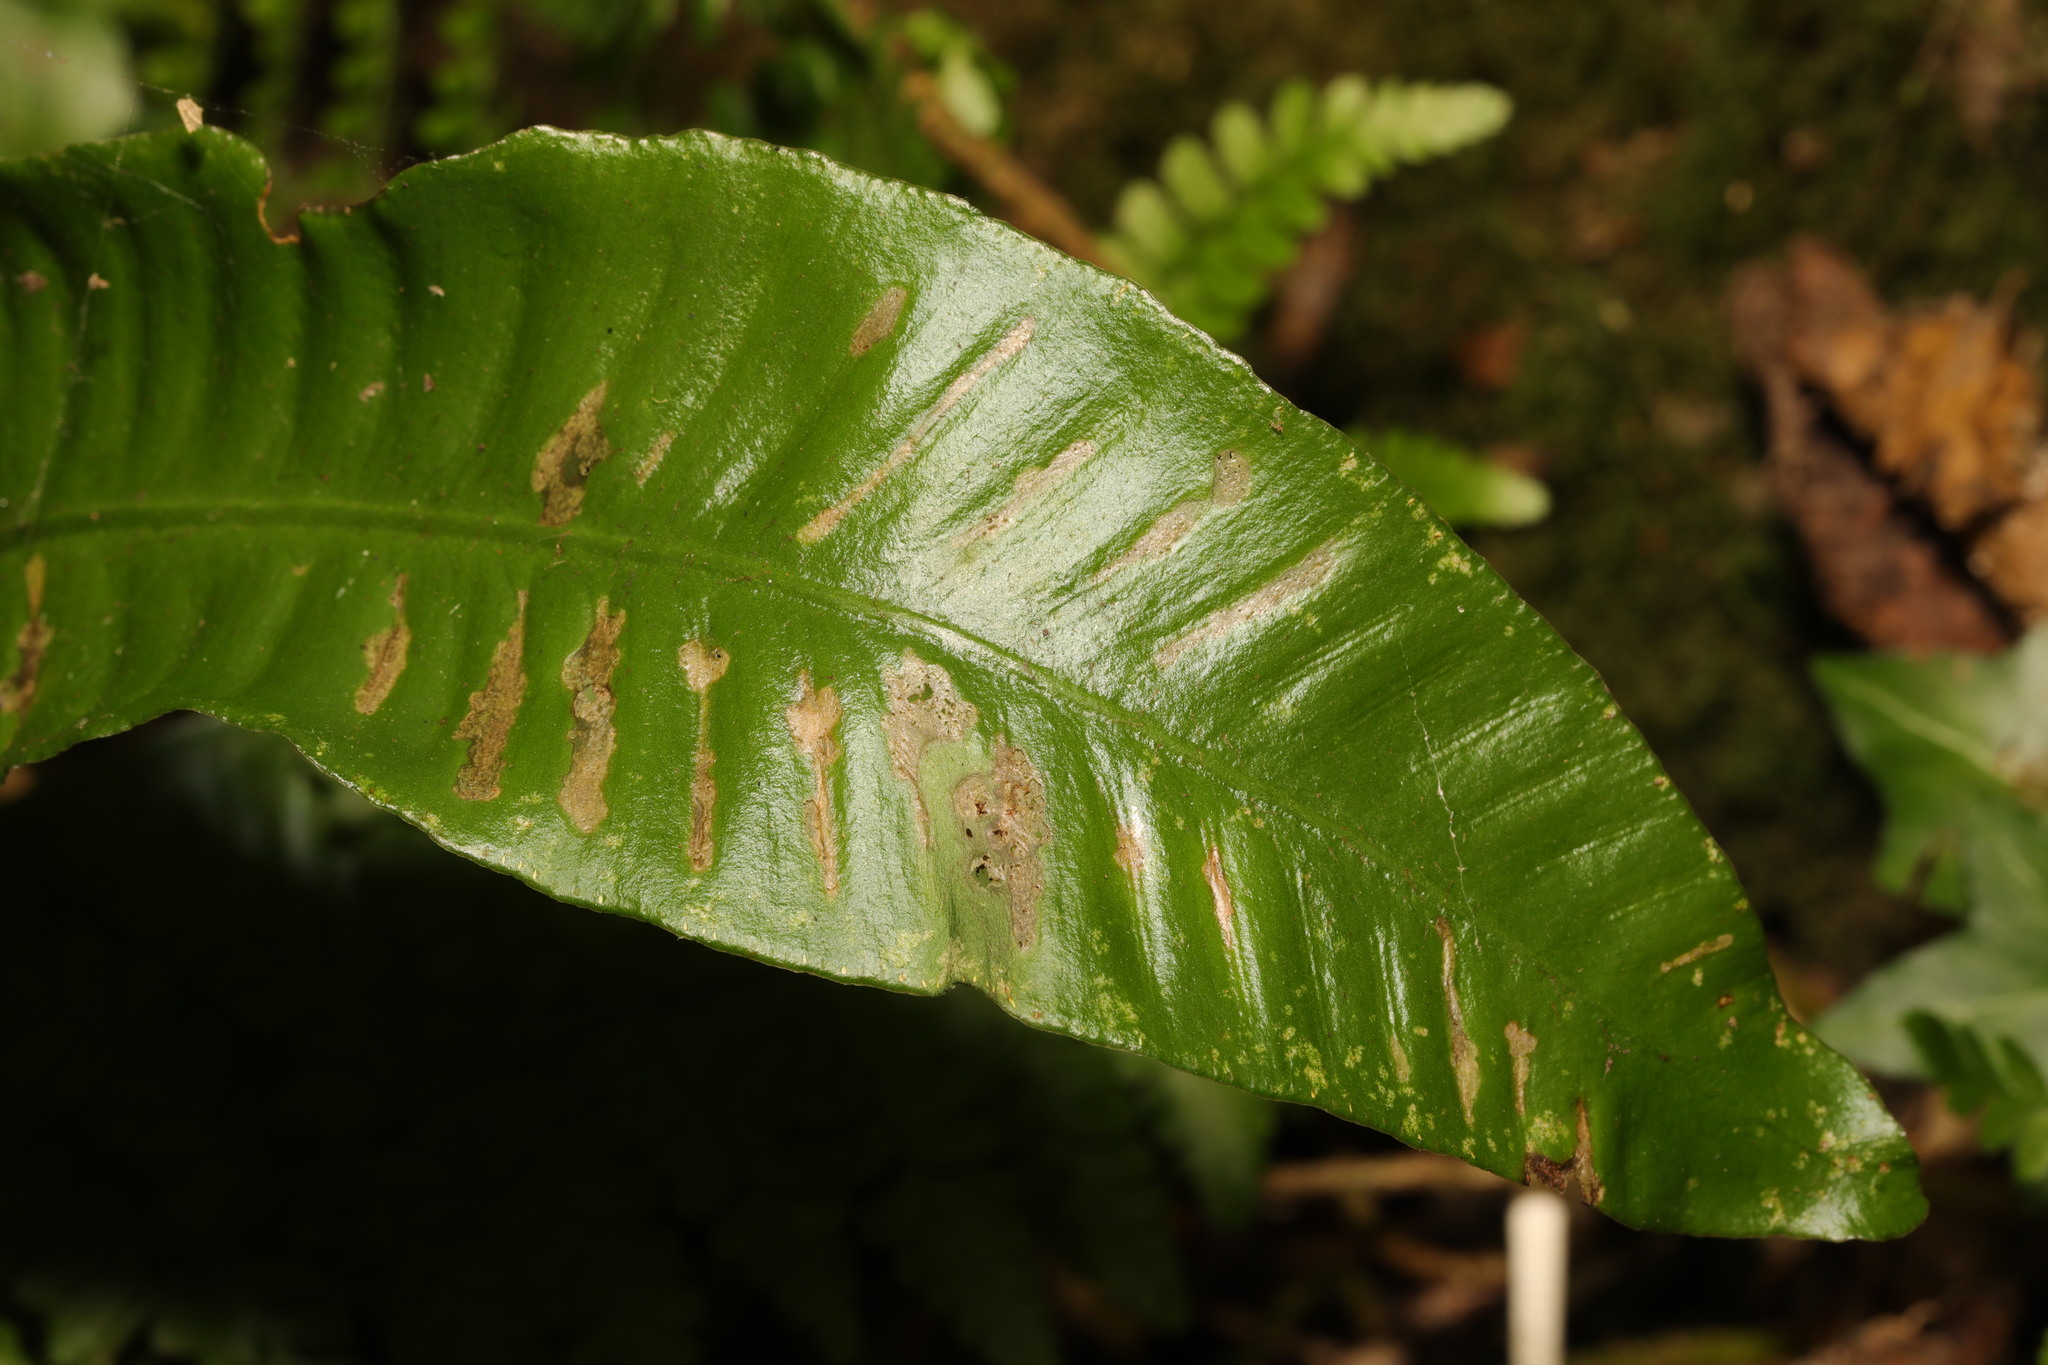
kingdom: Plantae
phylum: Tracheophyta
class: Polypodiopsida
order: Polypodiales
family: Aspleniaceae
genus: Asplenium
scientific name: Asplenium scolopendrium
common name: Hart's-tongue fern
